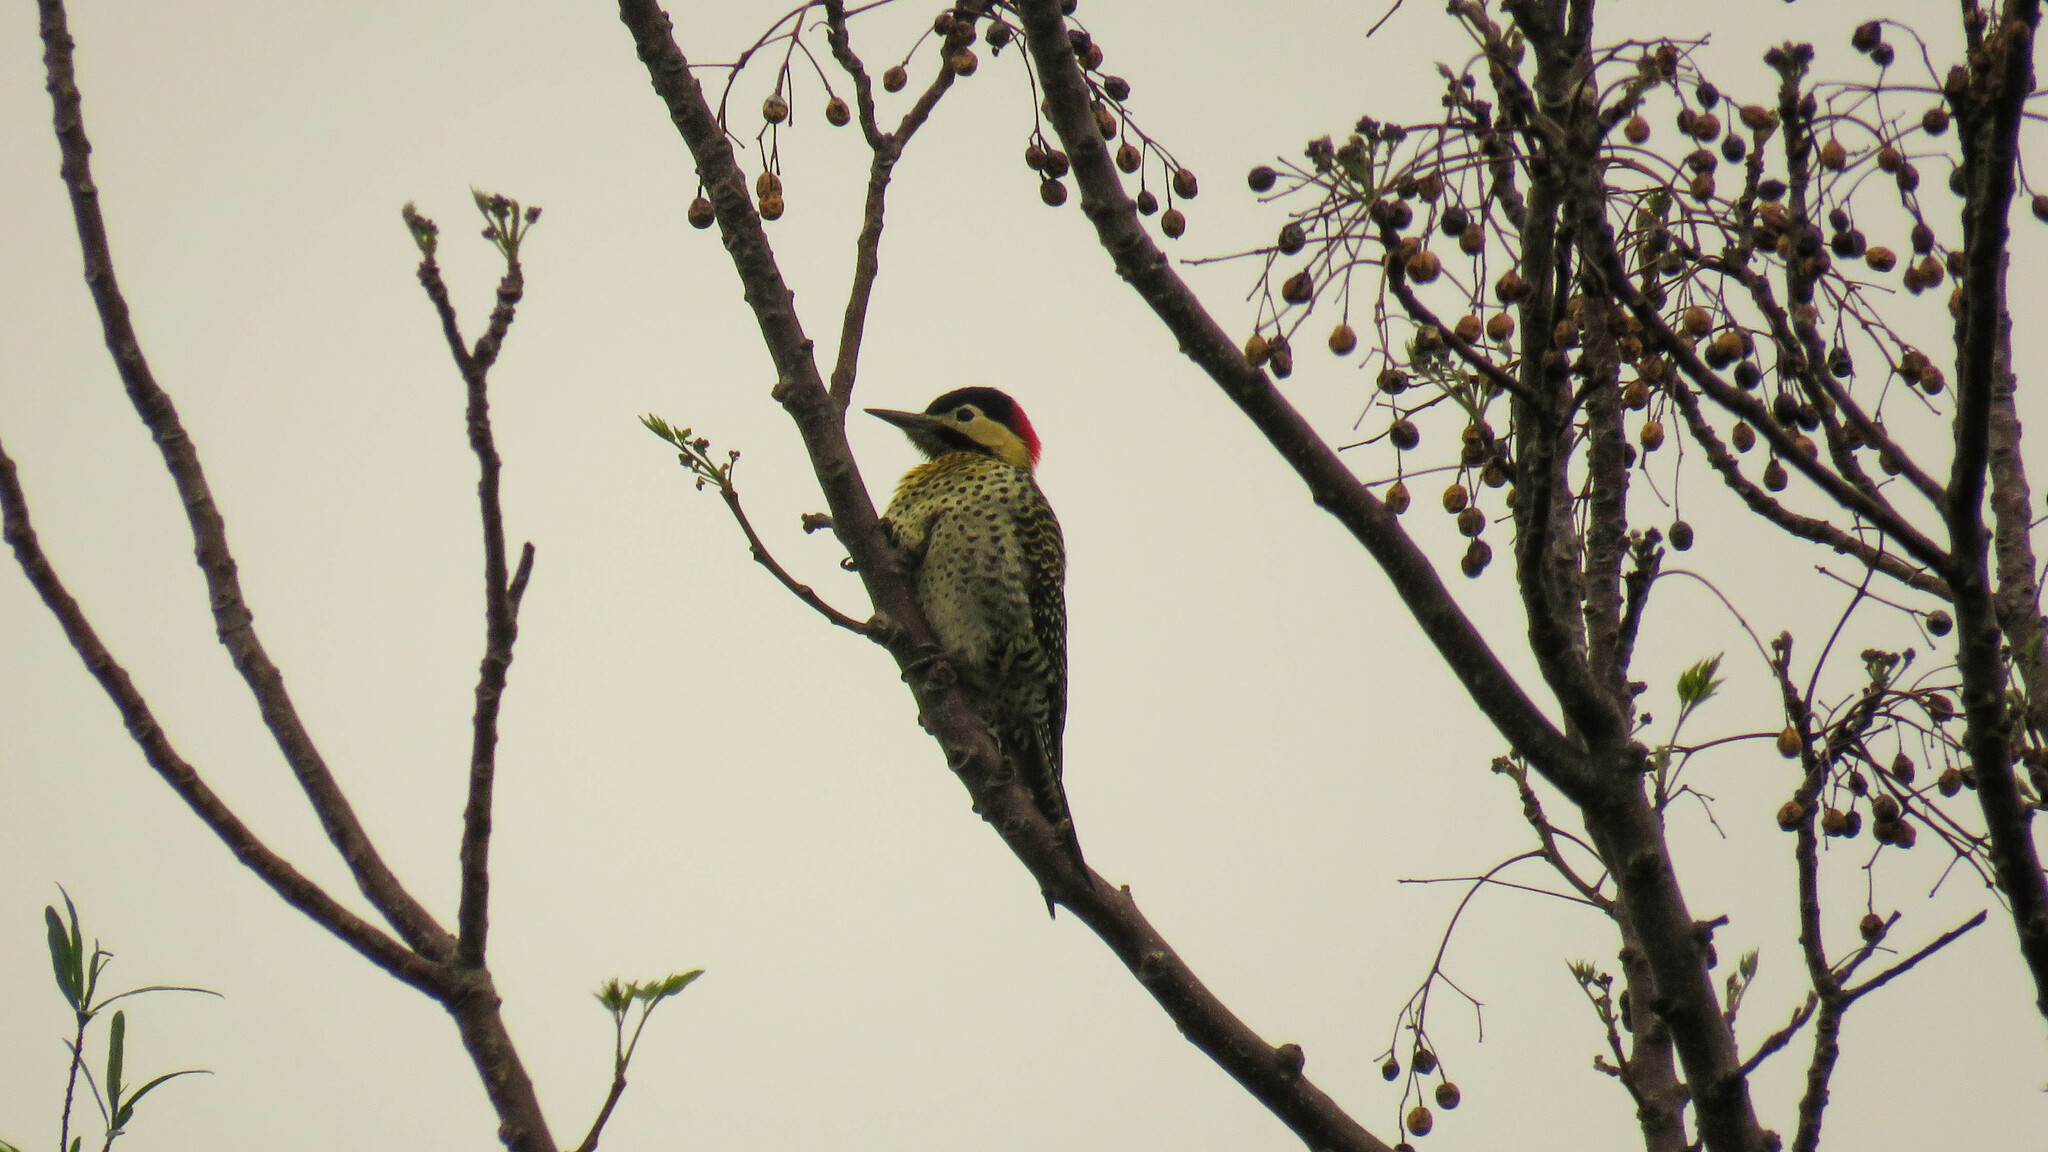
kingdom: Animalia
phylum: Chordata
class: Aves
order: Piciformes
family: Picidae
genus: Colaptes
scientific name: Colaptes melanochloros
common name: Green-barred woodpecker
